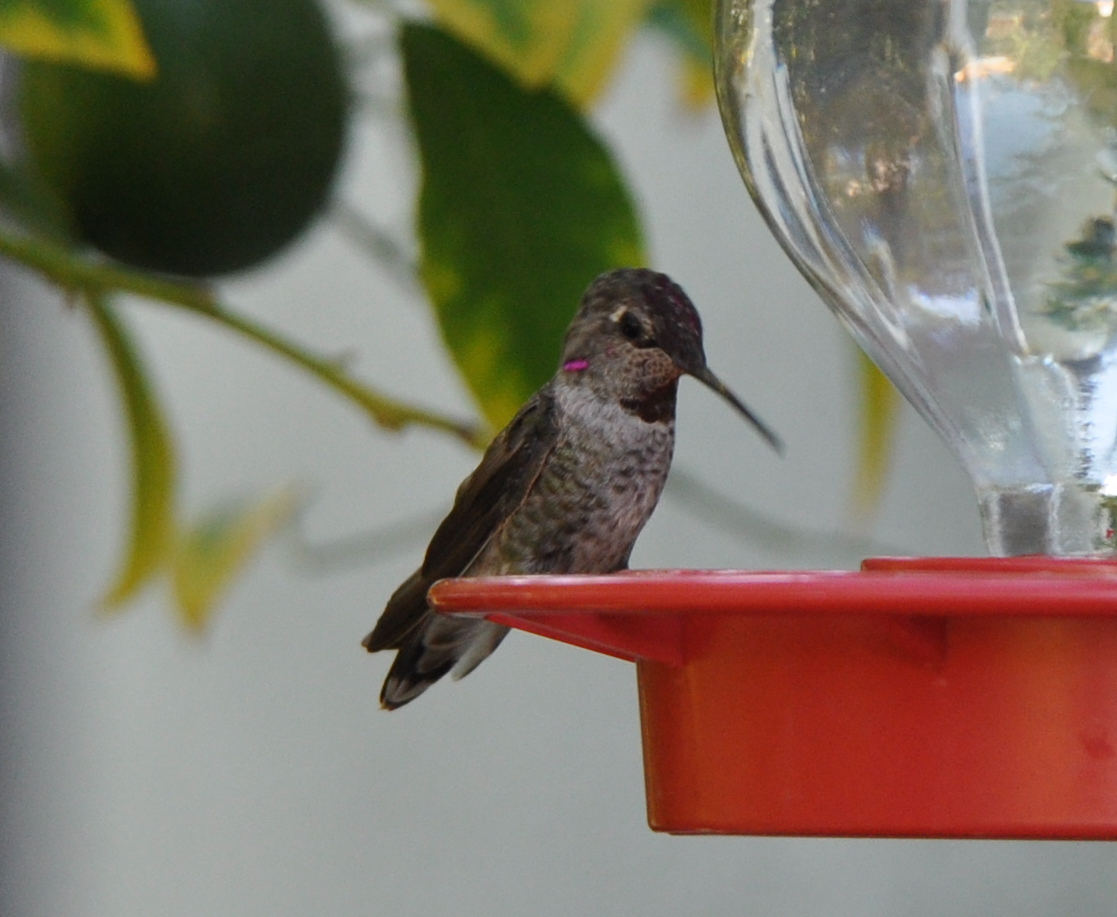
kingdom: Animalia
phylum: Chordata
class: Aves
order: Apodiformes
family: Trochilidae
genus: Calypte
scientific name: Calypte anna
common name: Anna's hummingbird
